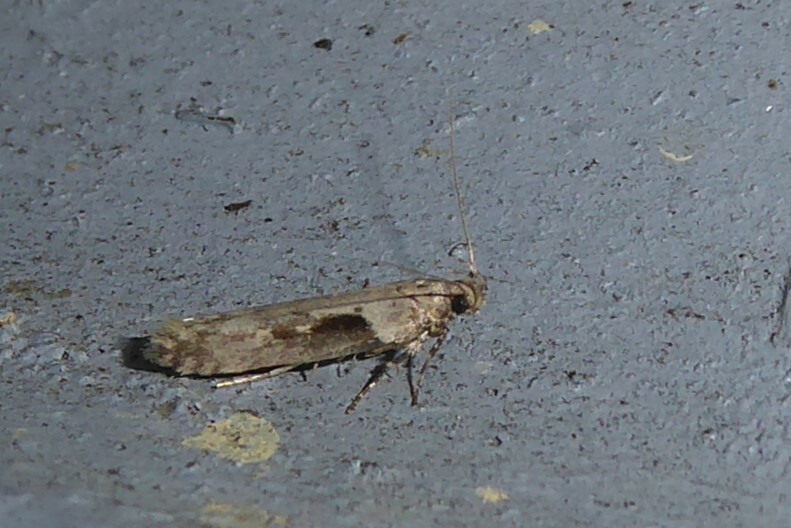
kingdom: Animalia
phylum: Arthropoda
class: Insecta
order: Lepidoptera
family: Gelechiidae
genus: Symmetrischema
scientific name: Symmetrischema tangolias
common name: Moth
